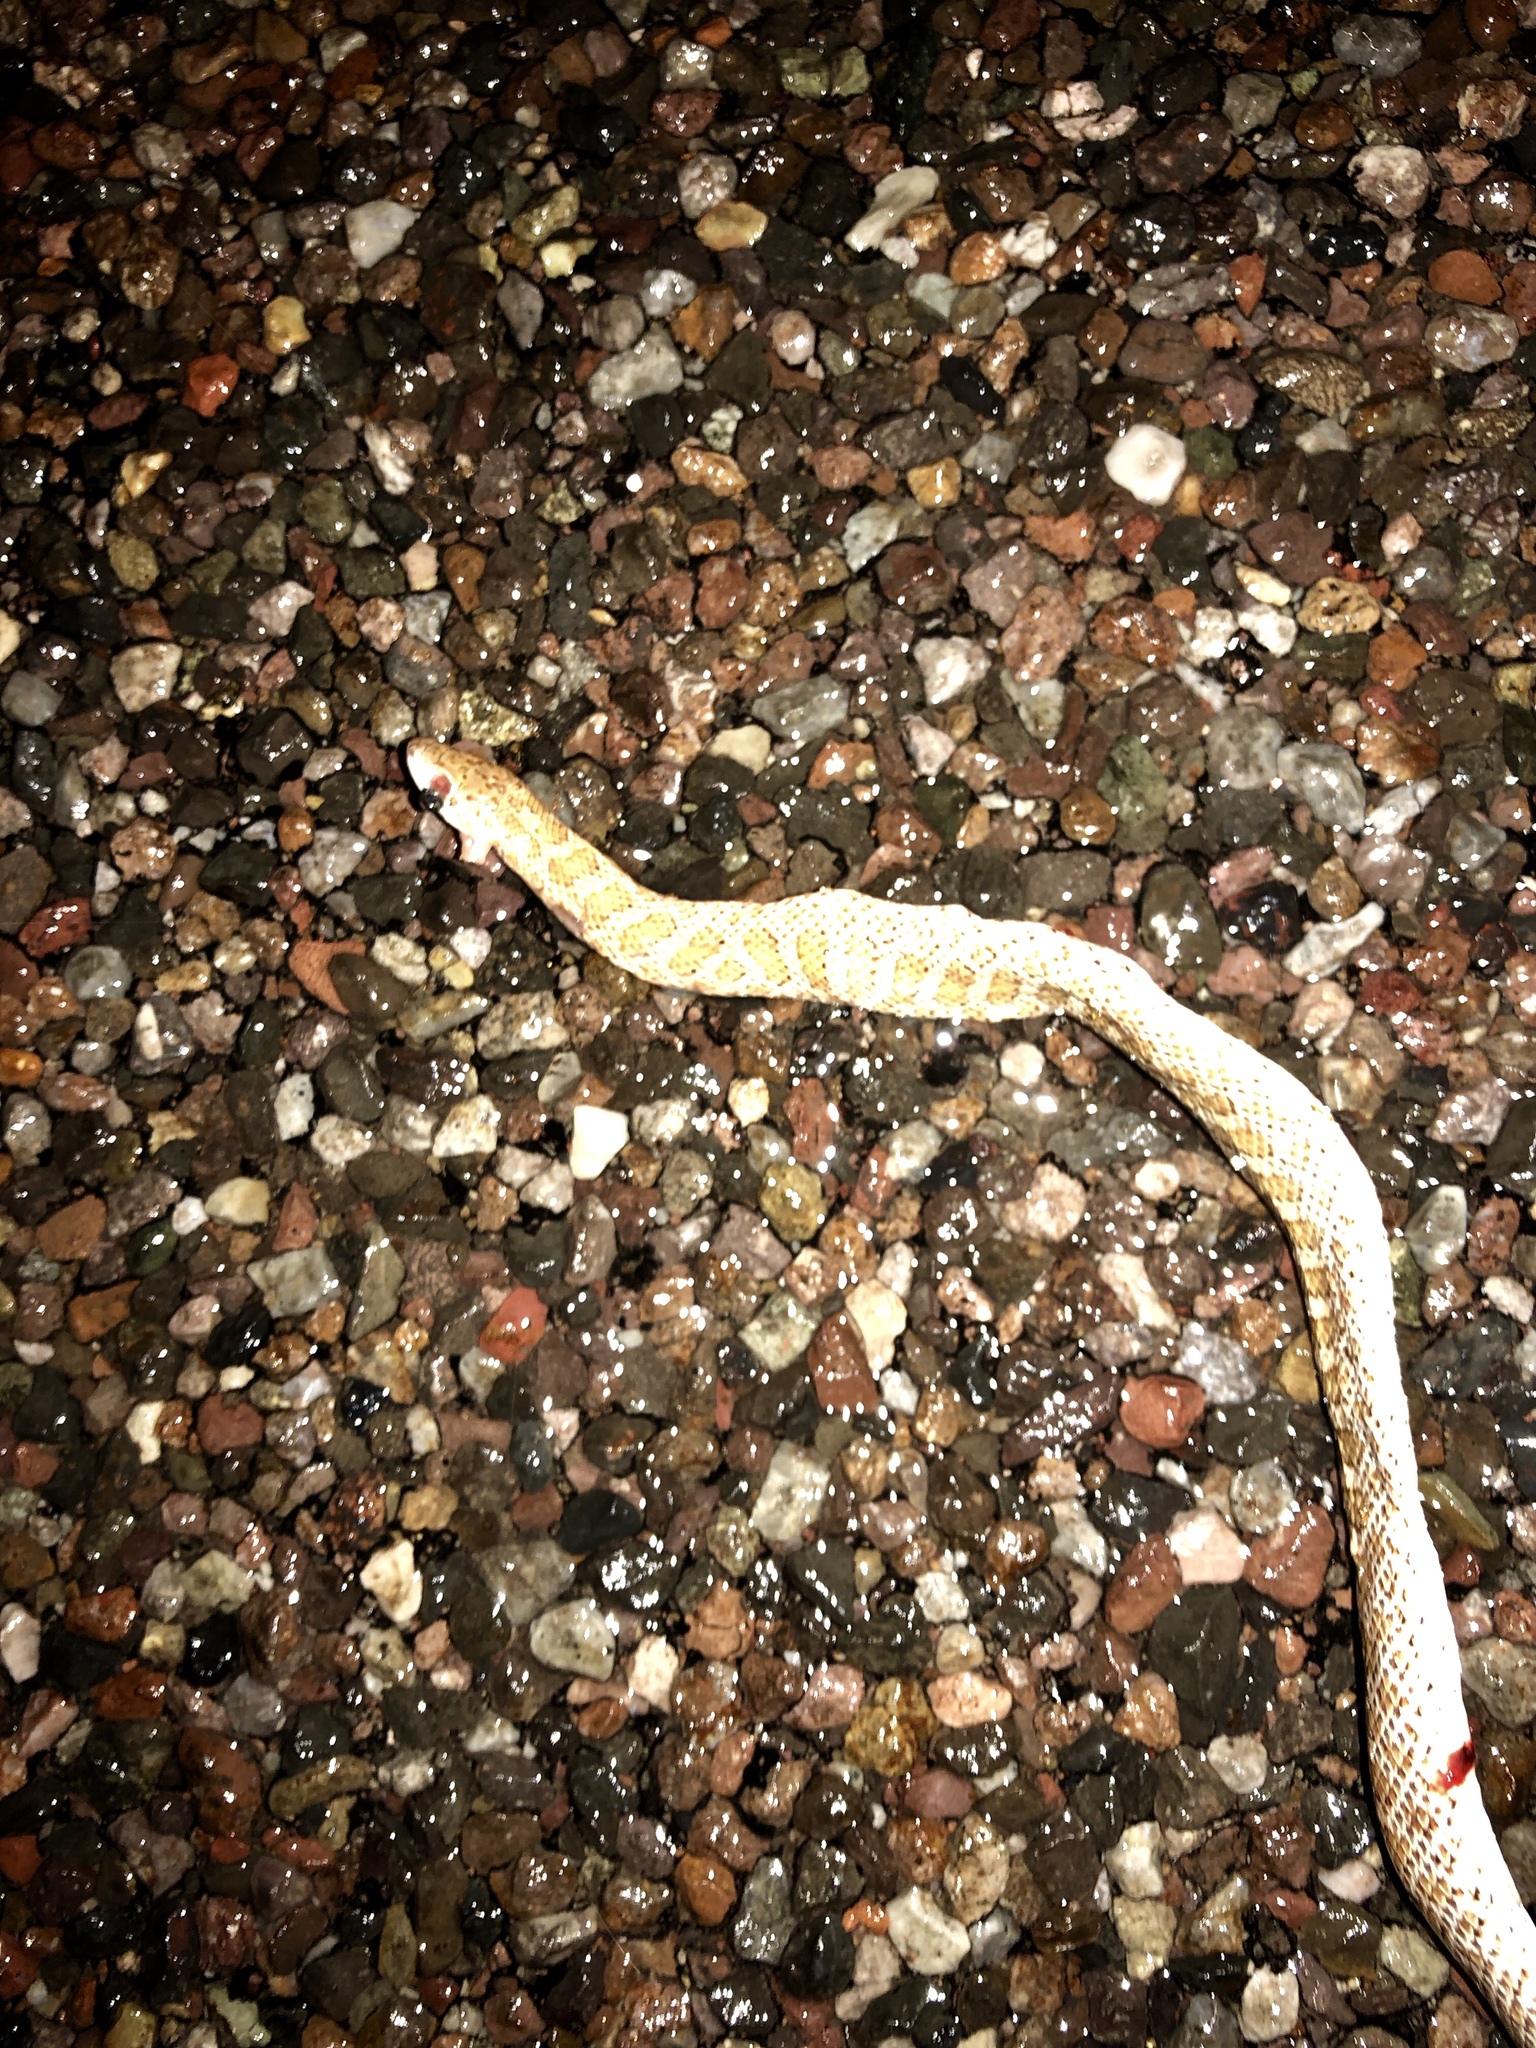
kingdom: Animalia
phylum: Chordata
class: Squamata
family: Colubridae
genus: Arizona
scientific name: Arizona elegans
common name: Glossy snake
